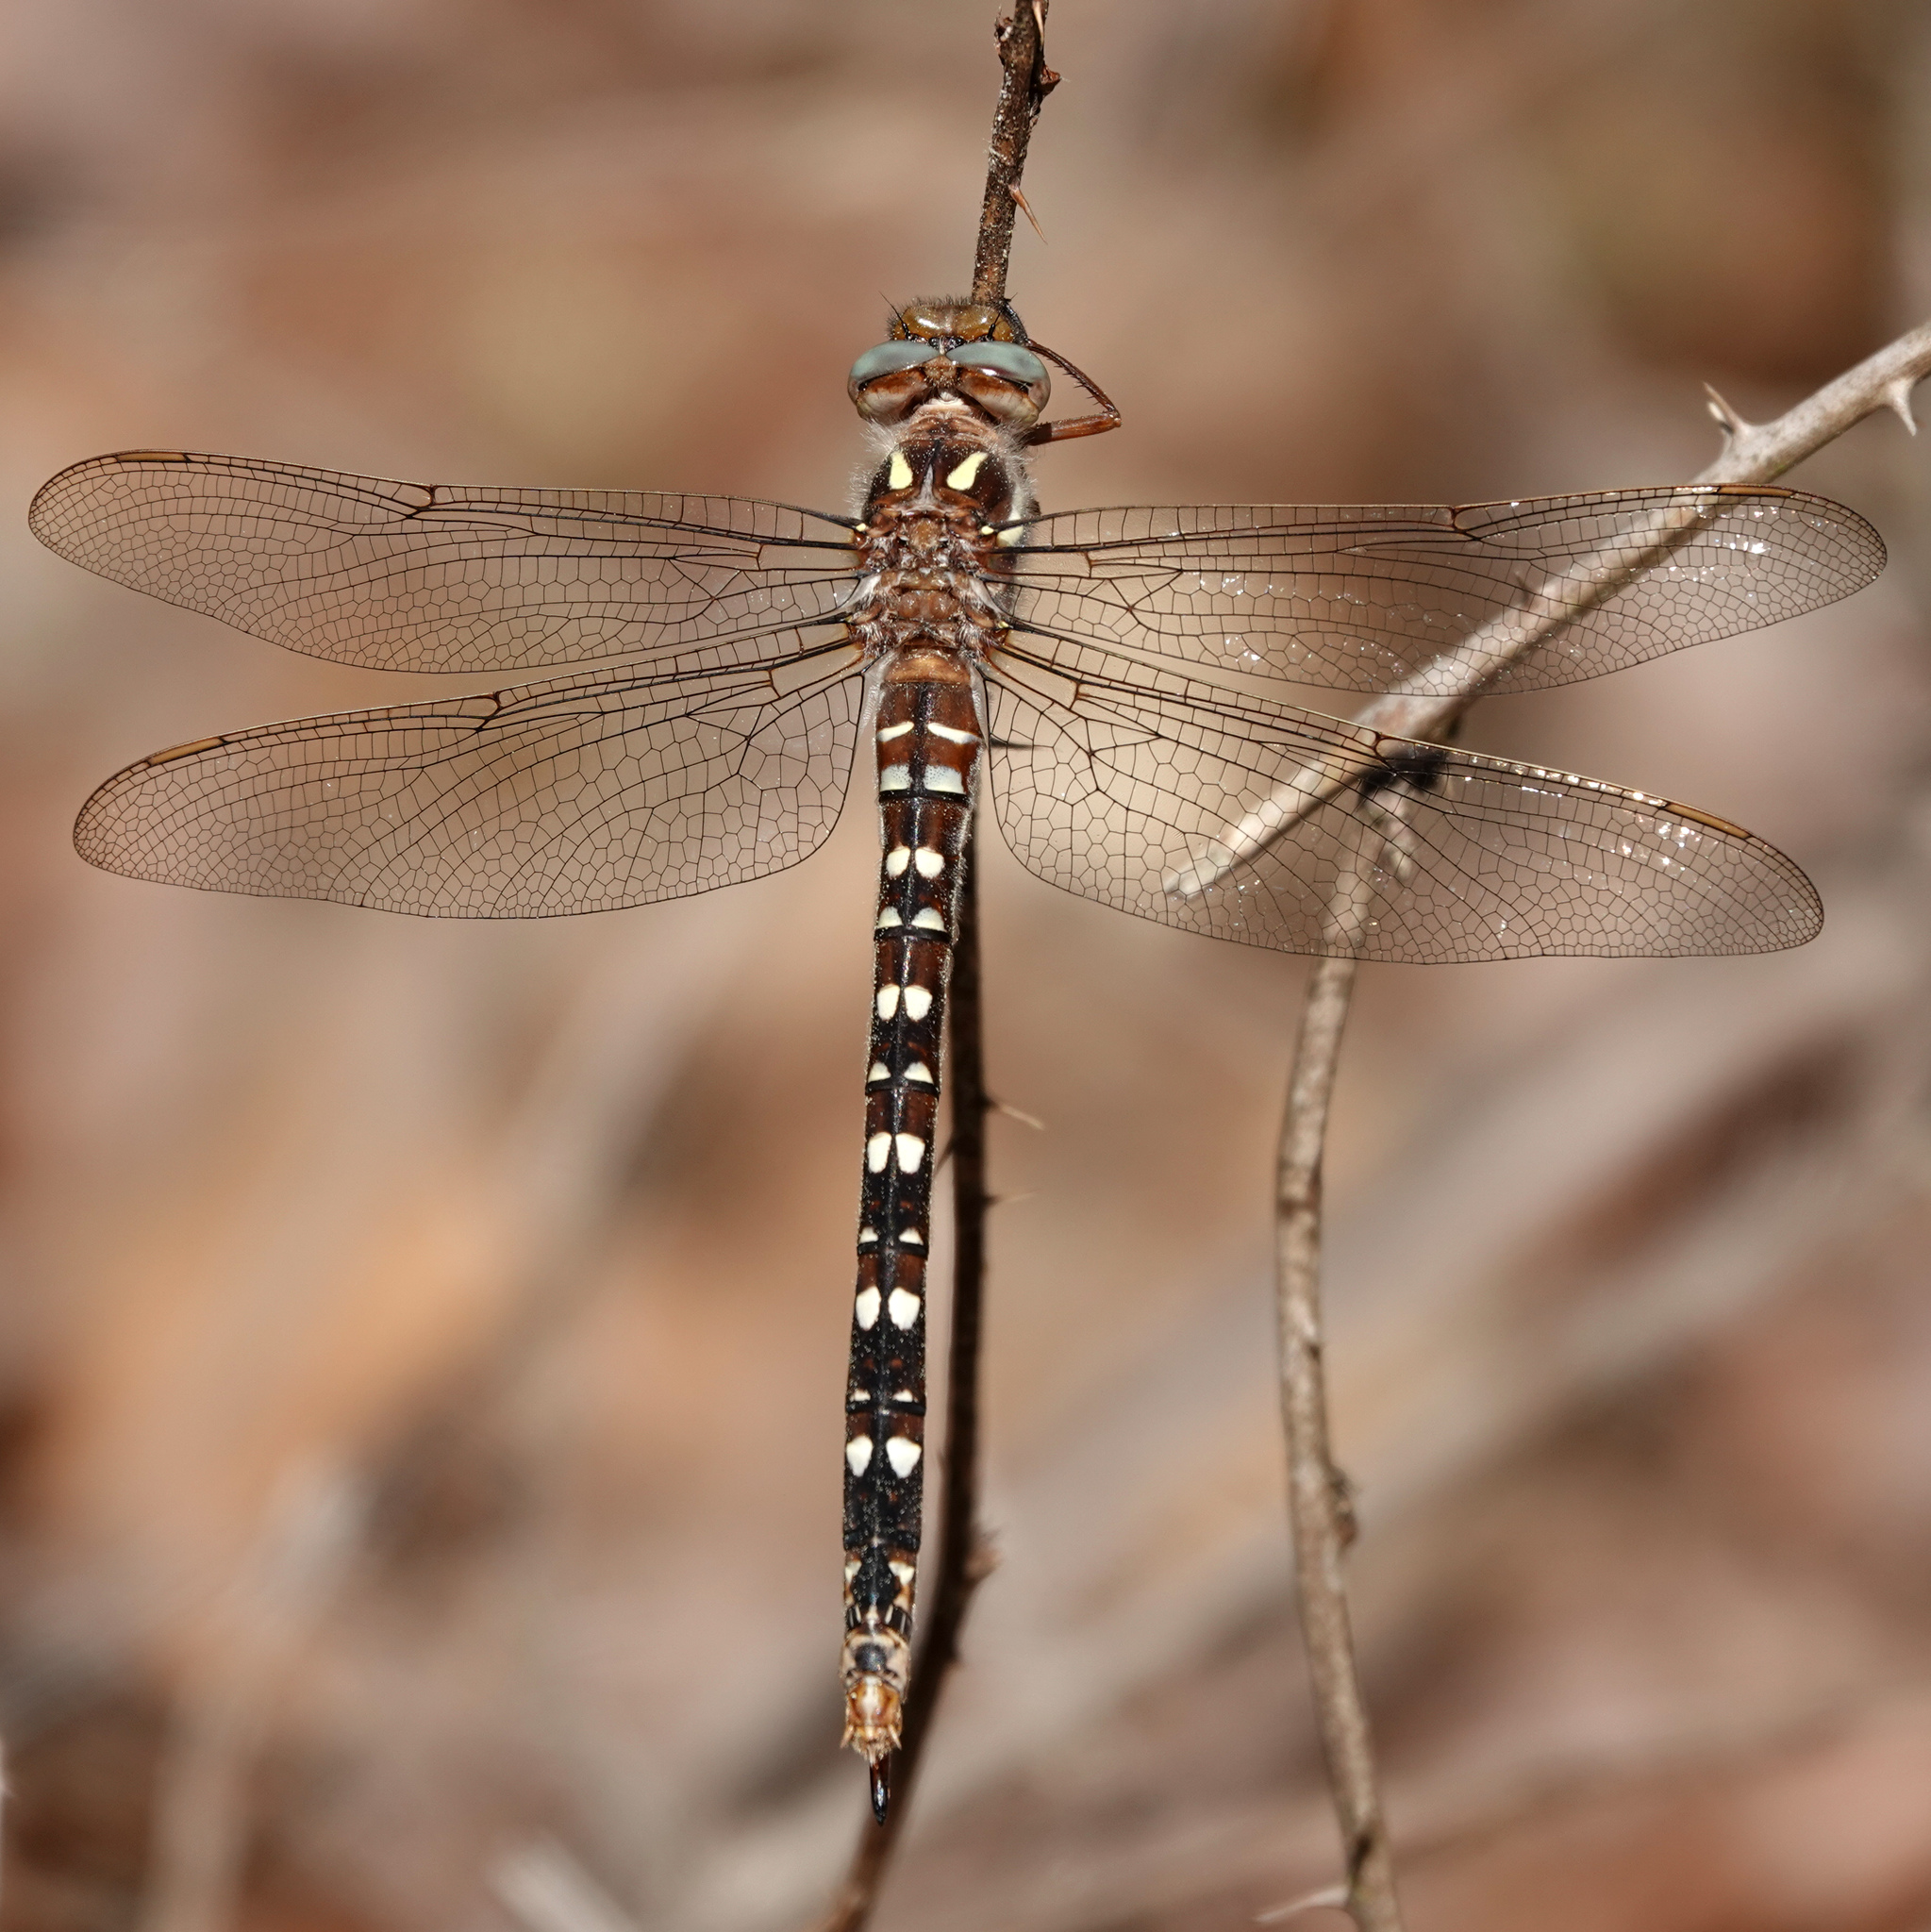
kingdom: Animalia
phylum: Arthropoda
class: Insecta
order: Odonata
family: Cordulegastridae
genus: Cordulegaster
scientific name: Cordulegaster maculata
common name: Twin-spotted spiketail
